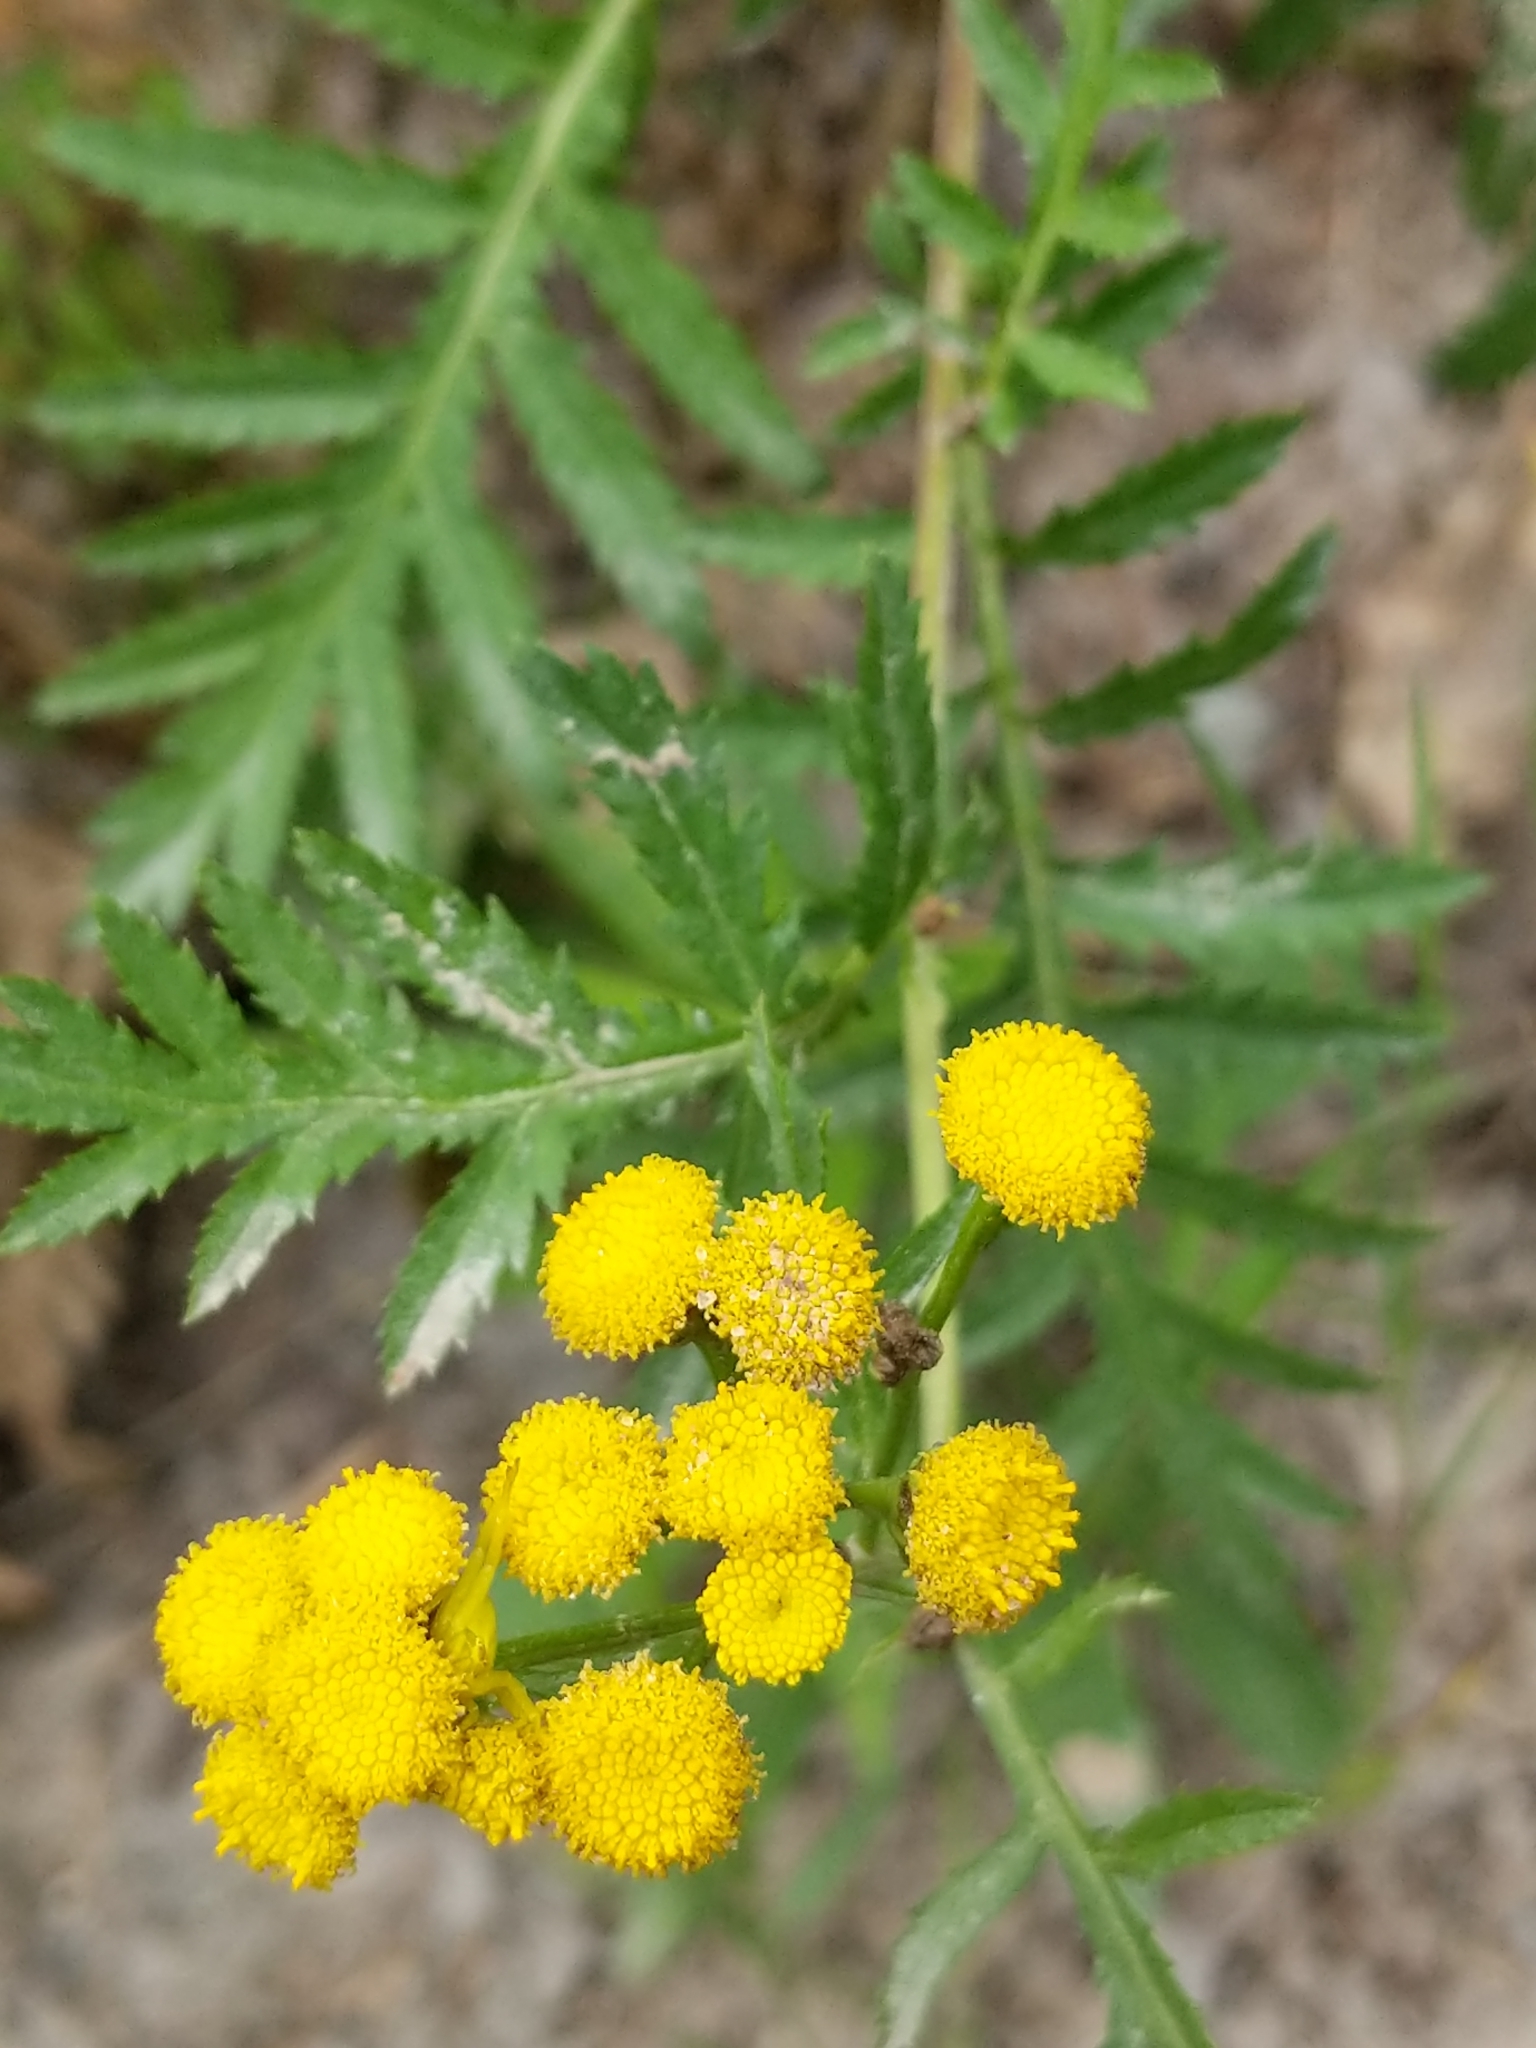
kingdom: Plantae
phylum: Tracheophyta
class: Magnoliopsida
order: Asterales
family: Asteraceae
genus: Tanacetum
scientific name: Tanacetum vulgare
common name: Common tansy
